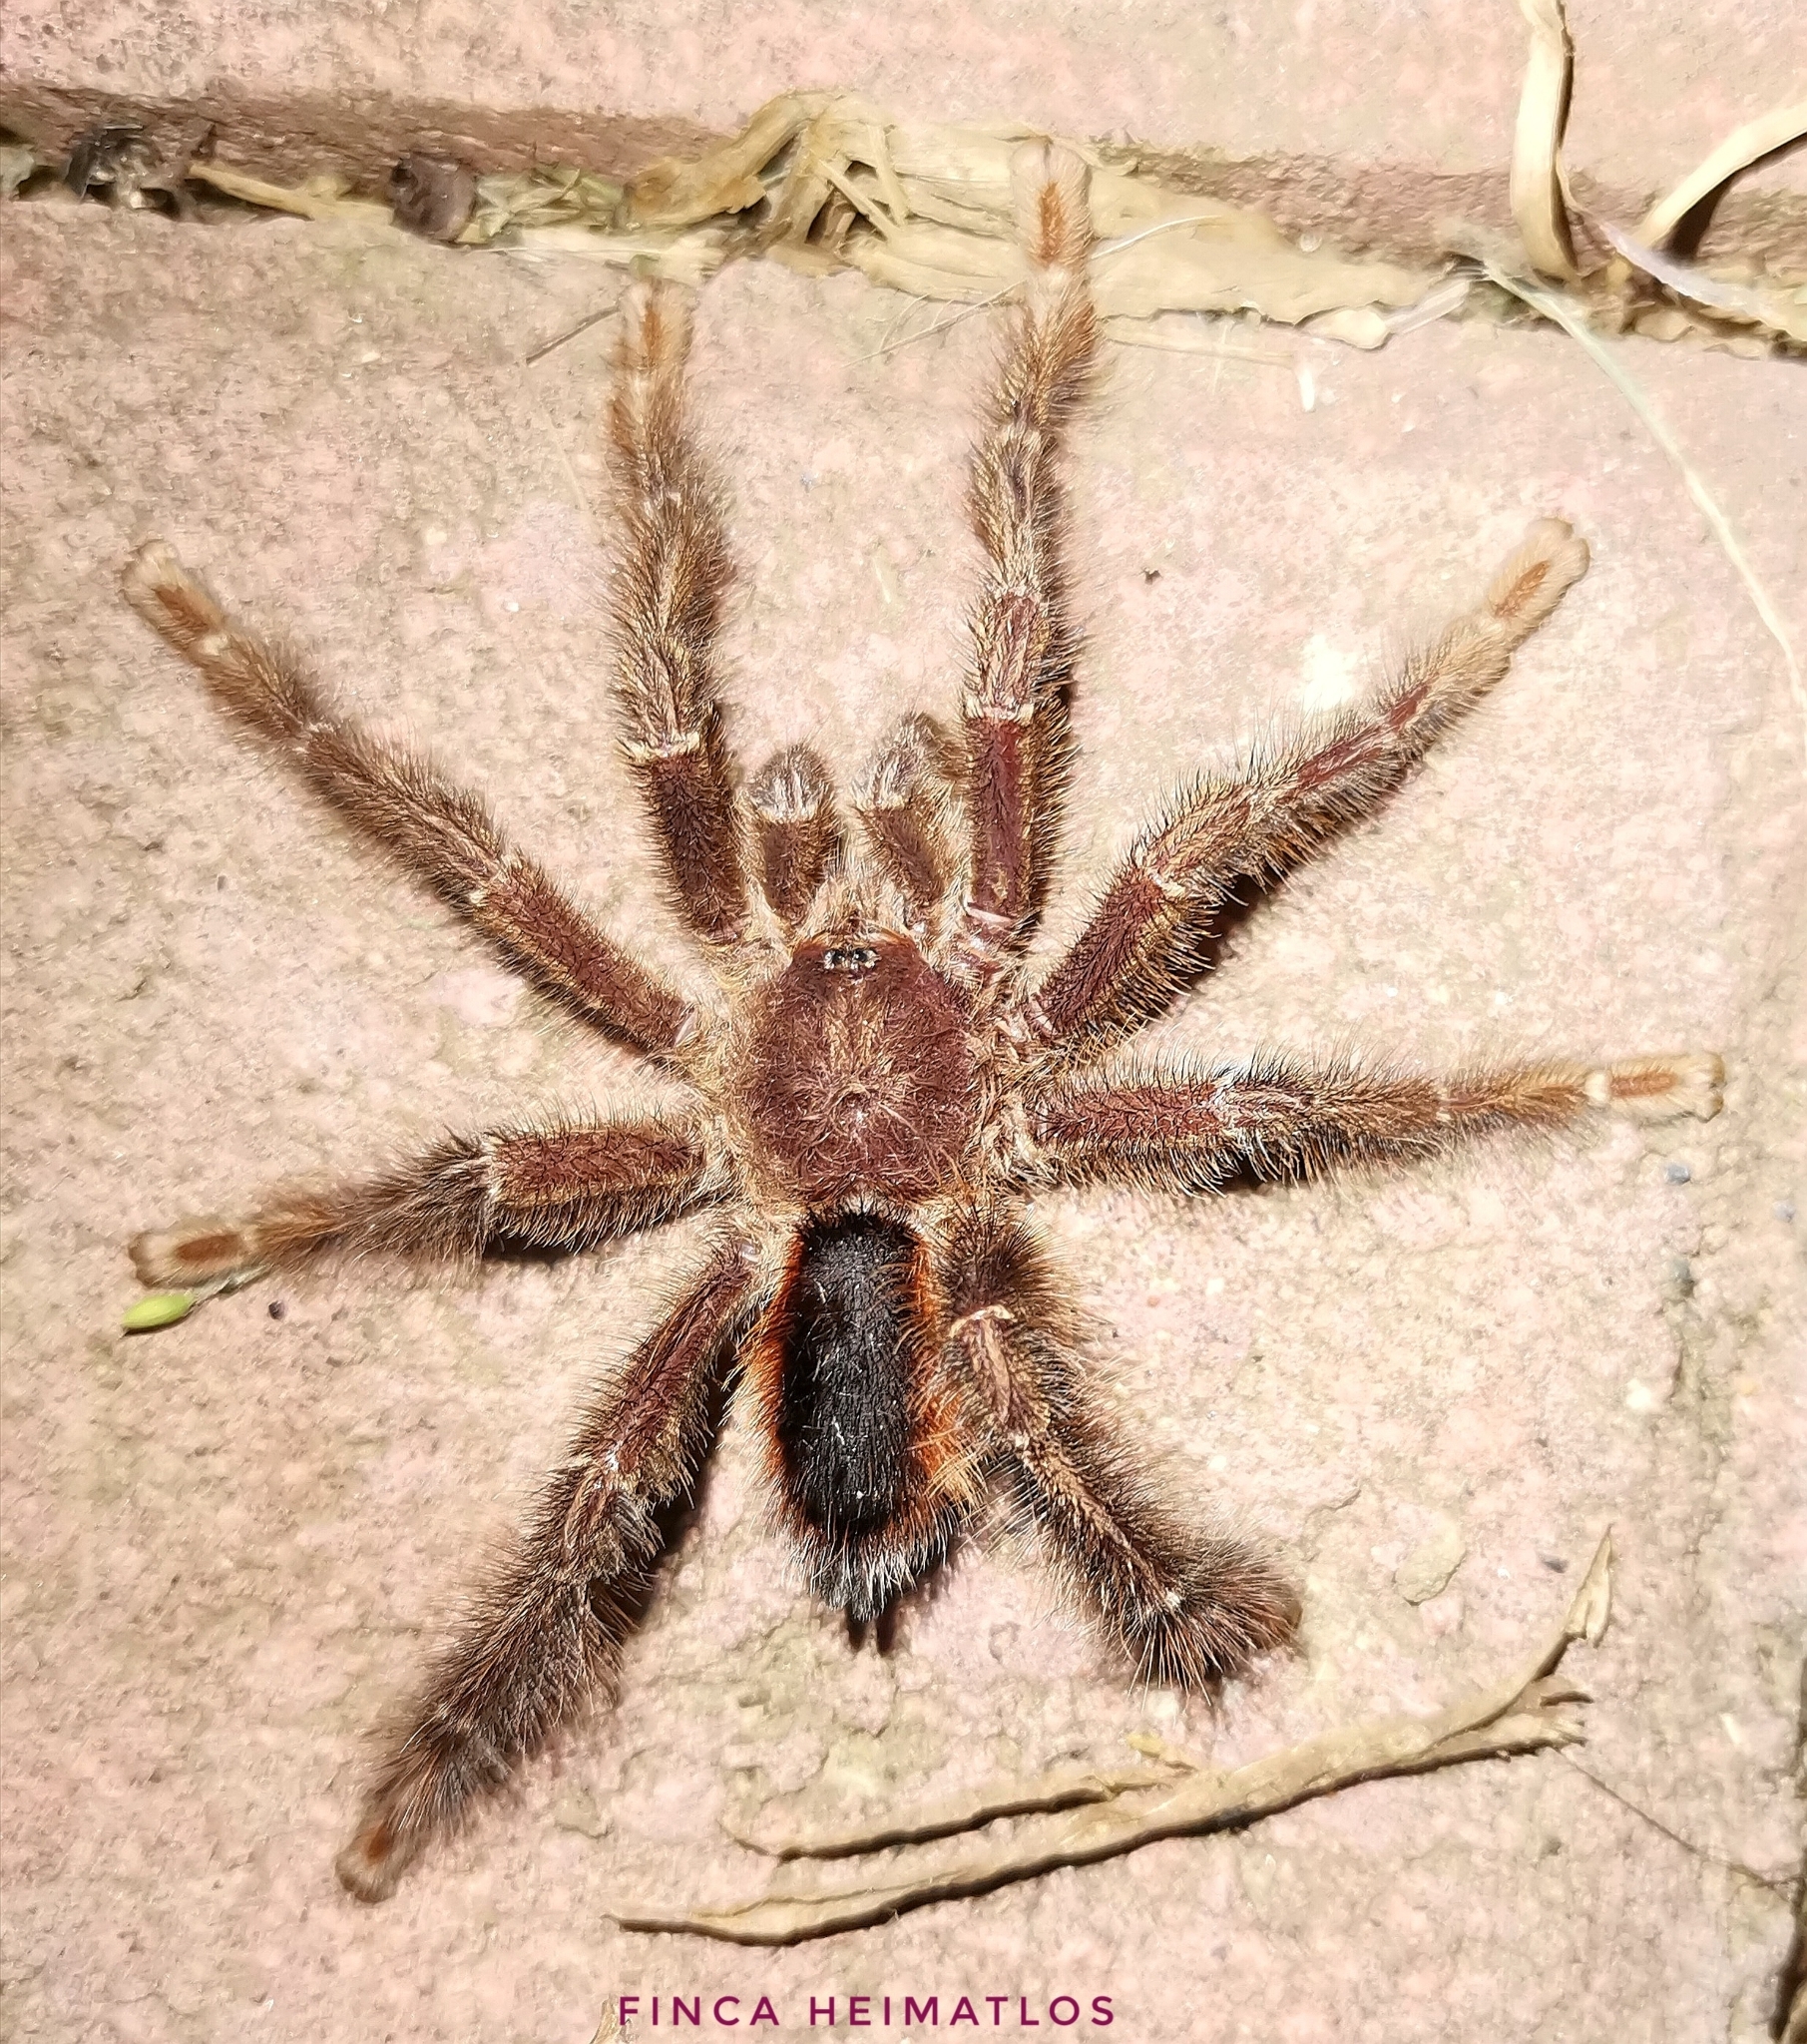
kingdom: Animalia
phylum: Arthropoda
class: Arachnida
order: Araneae
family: Theraphosidae
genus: Avicularia
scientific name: Avicularia lynnae
